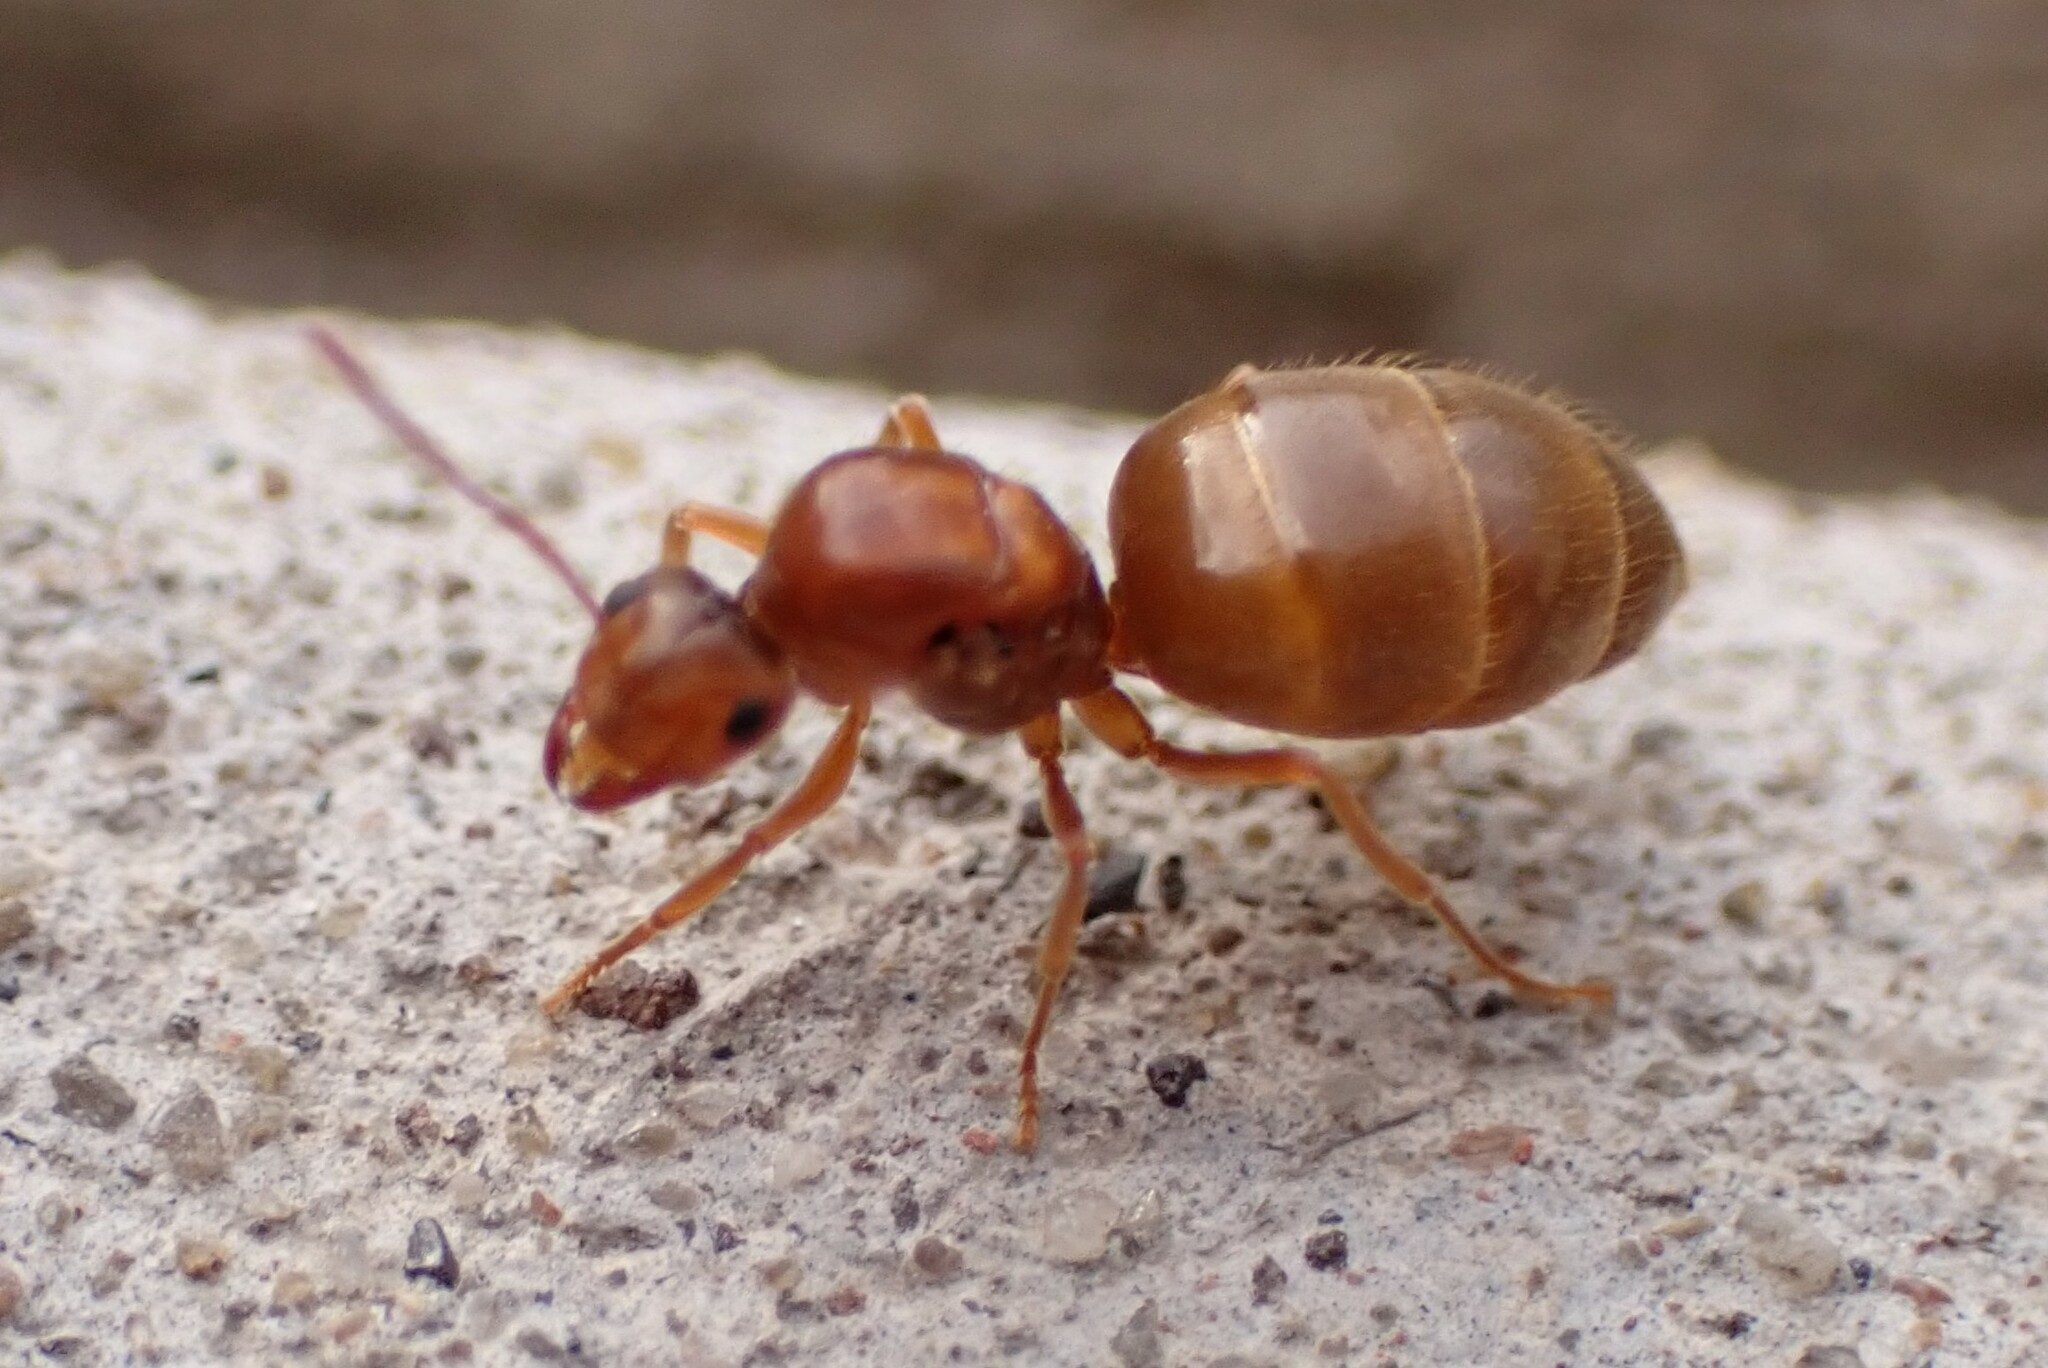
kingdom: Animalia
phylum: Arthropoda
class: Insecta
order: Hymenoptera
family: Formicidae
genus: Prenolepis
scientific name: Prenolepis imparis
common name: Small honey ant
